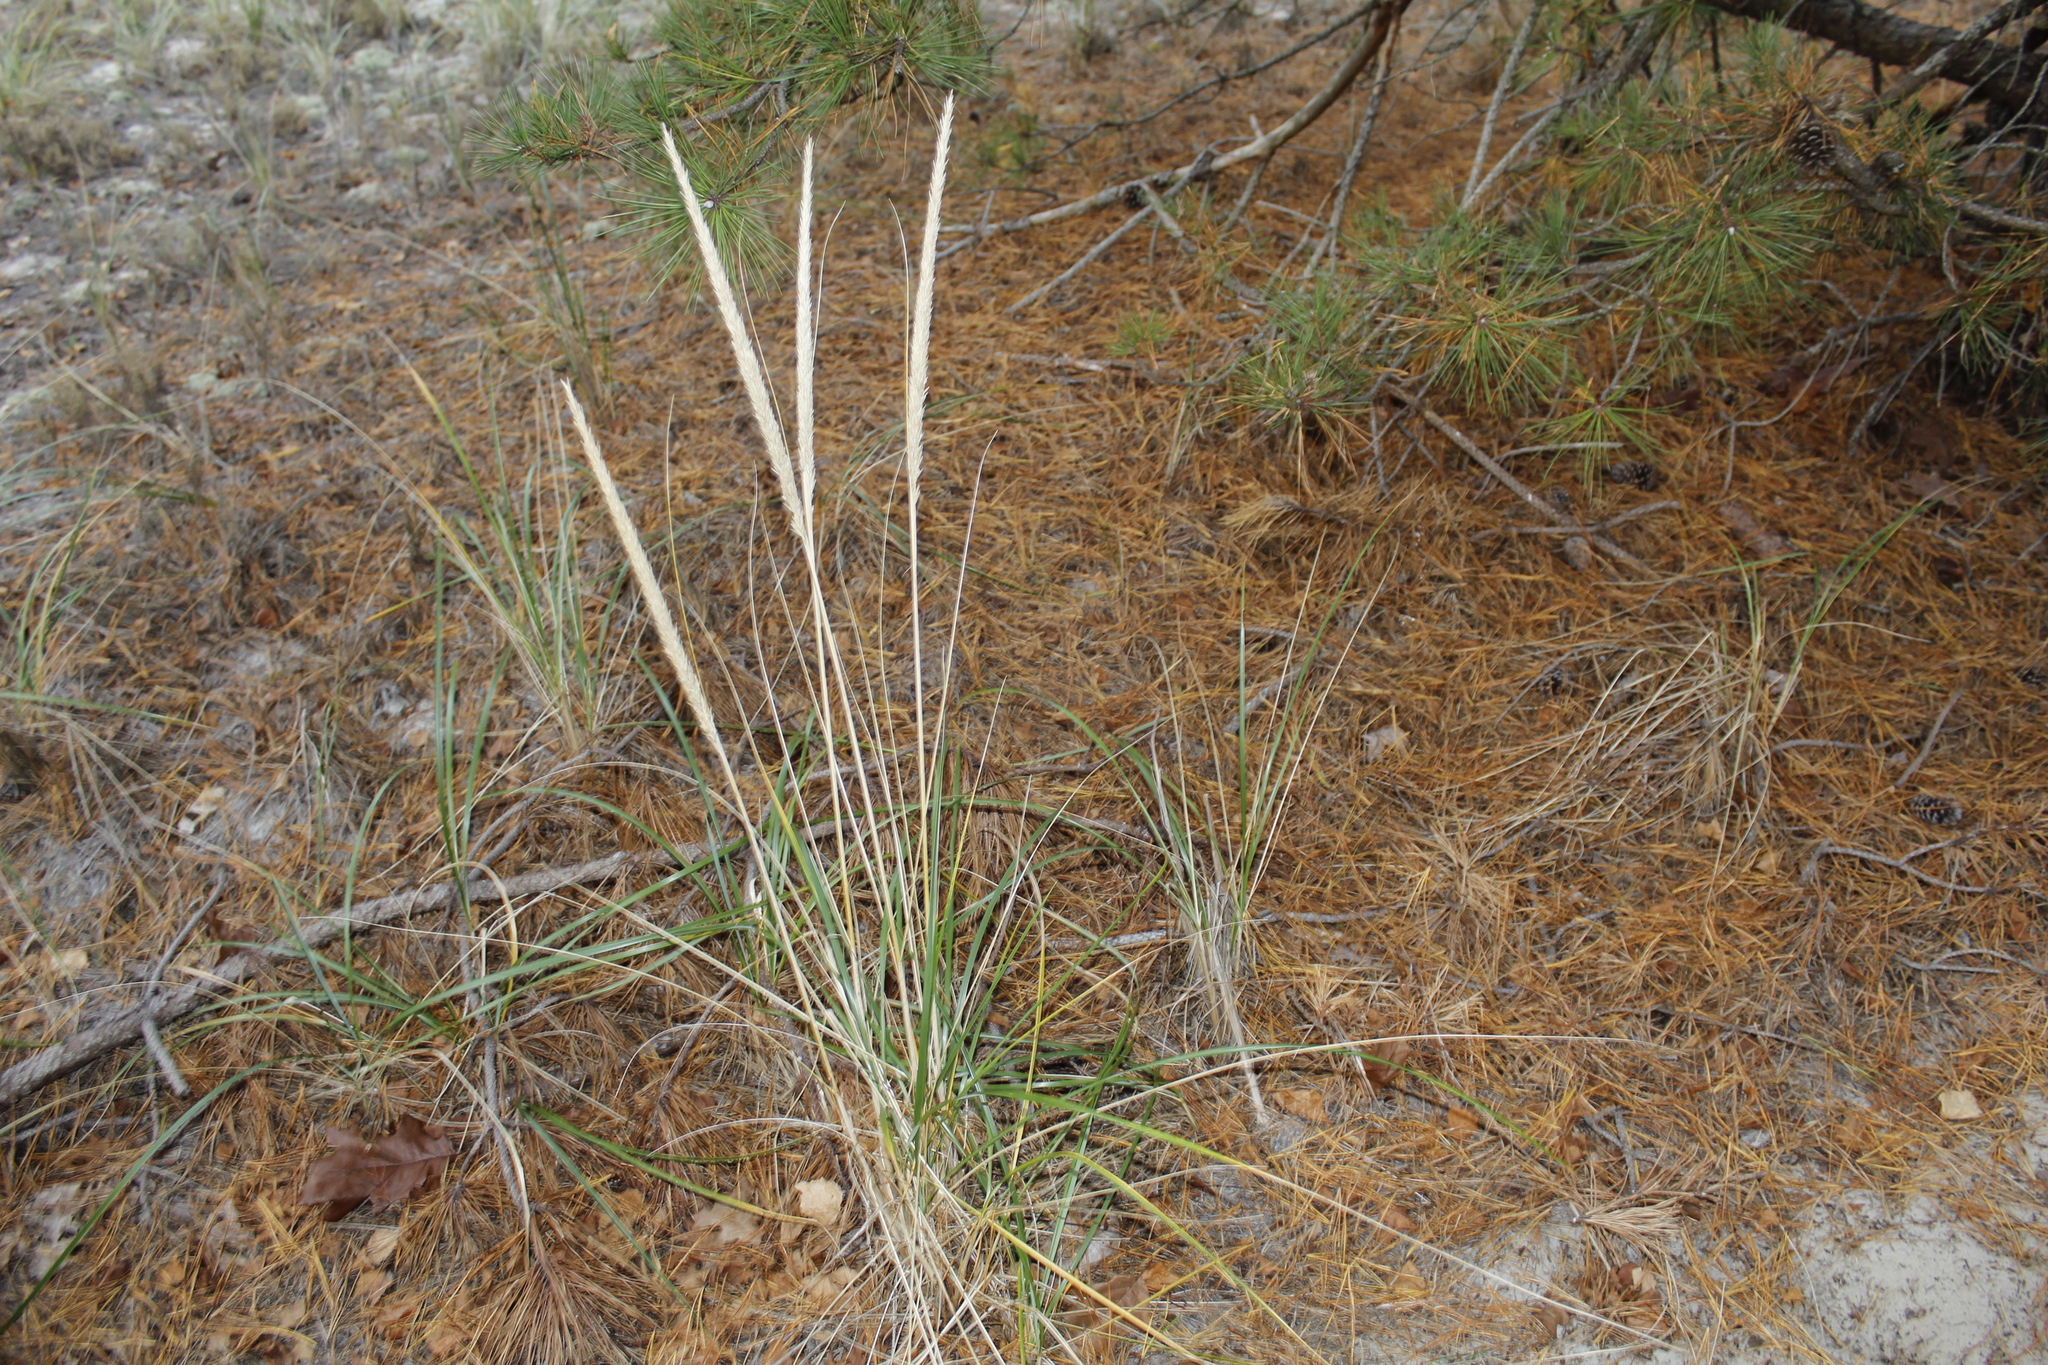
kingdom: Plantae
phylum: Tracheophyta
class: Liliopsida
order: Poales
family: Poaceae
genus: Calamagrostis
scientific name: Calamagrostis breviligulata
